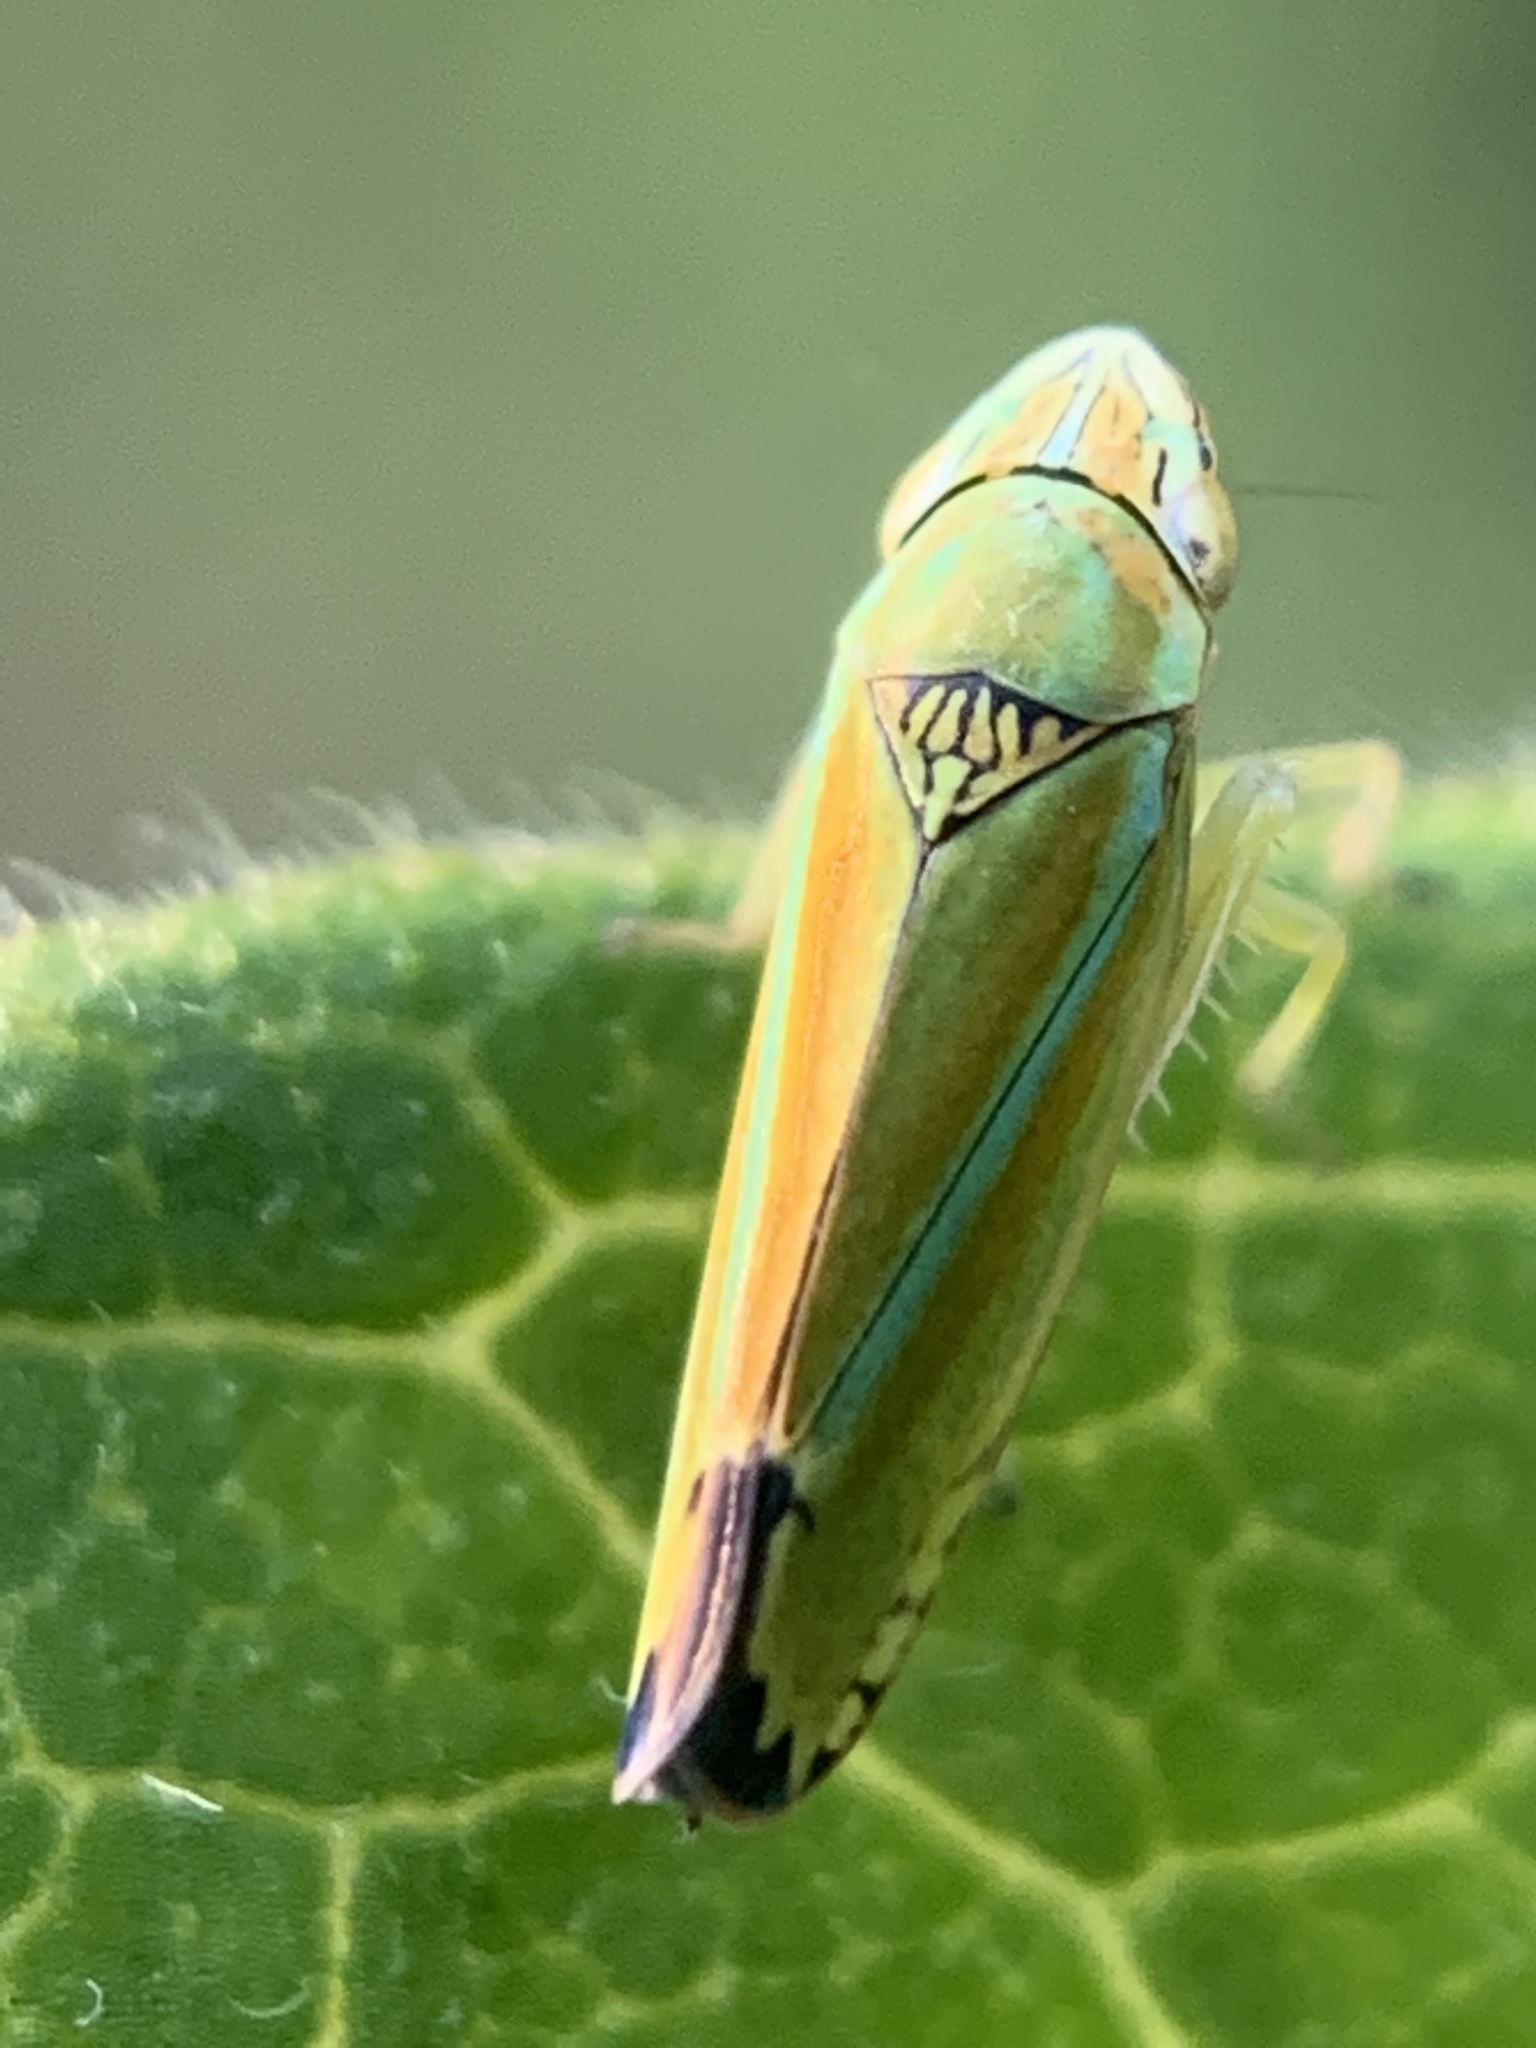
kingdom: Animalia
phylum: Arthropoda
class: Insecta
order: Hemiptera
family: Cicadellidae
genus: Graphocephala
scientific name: Graphocephala versuta
